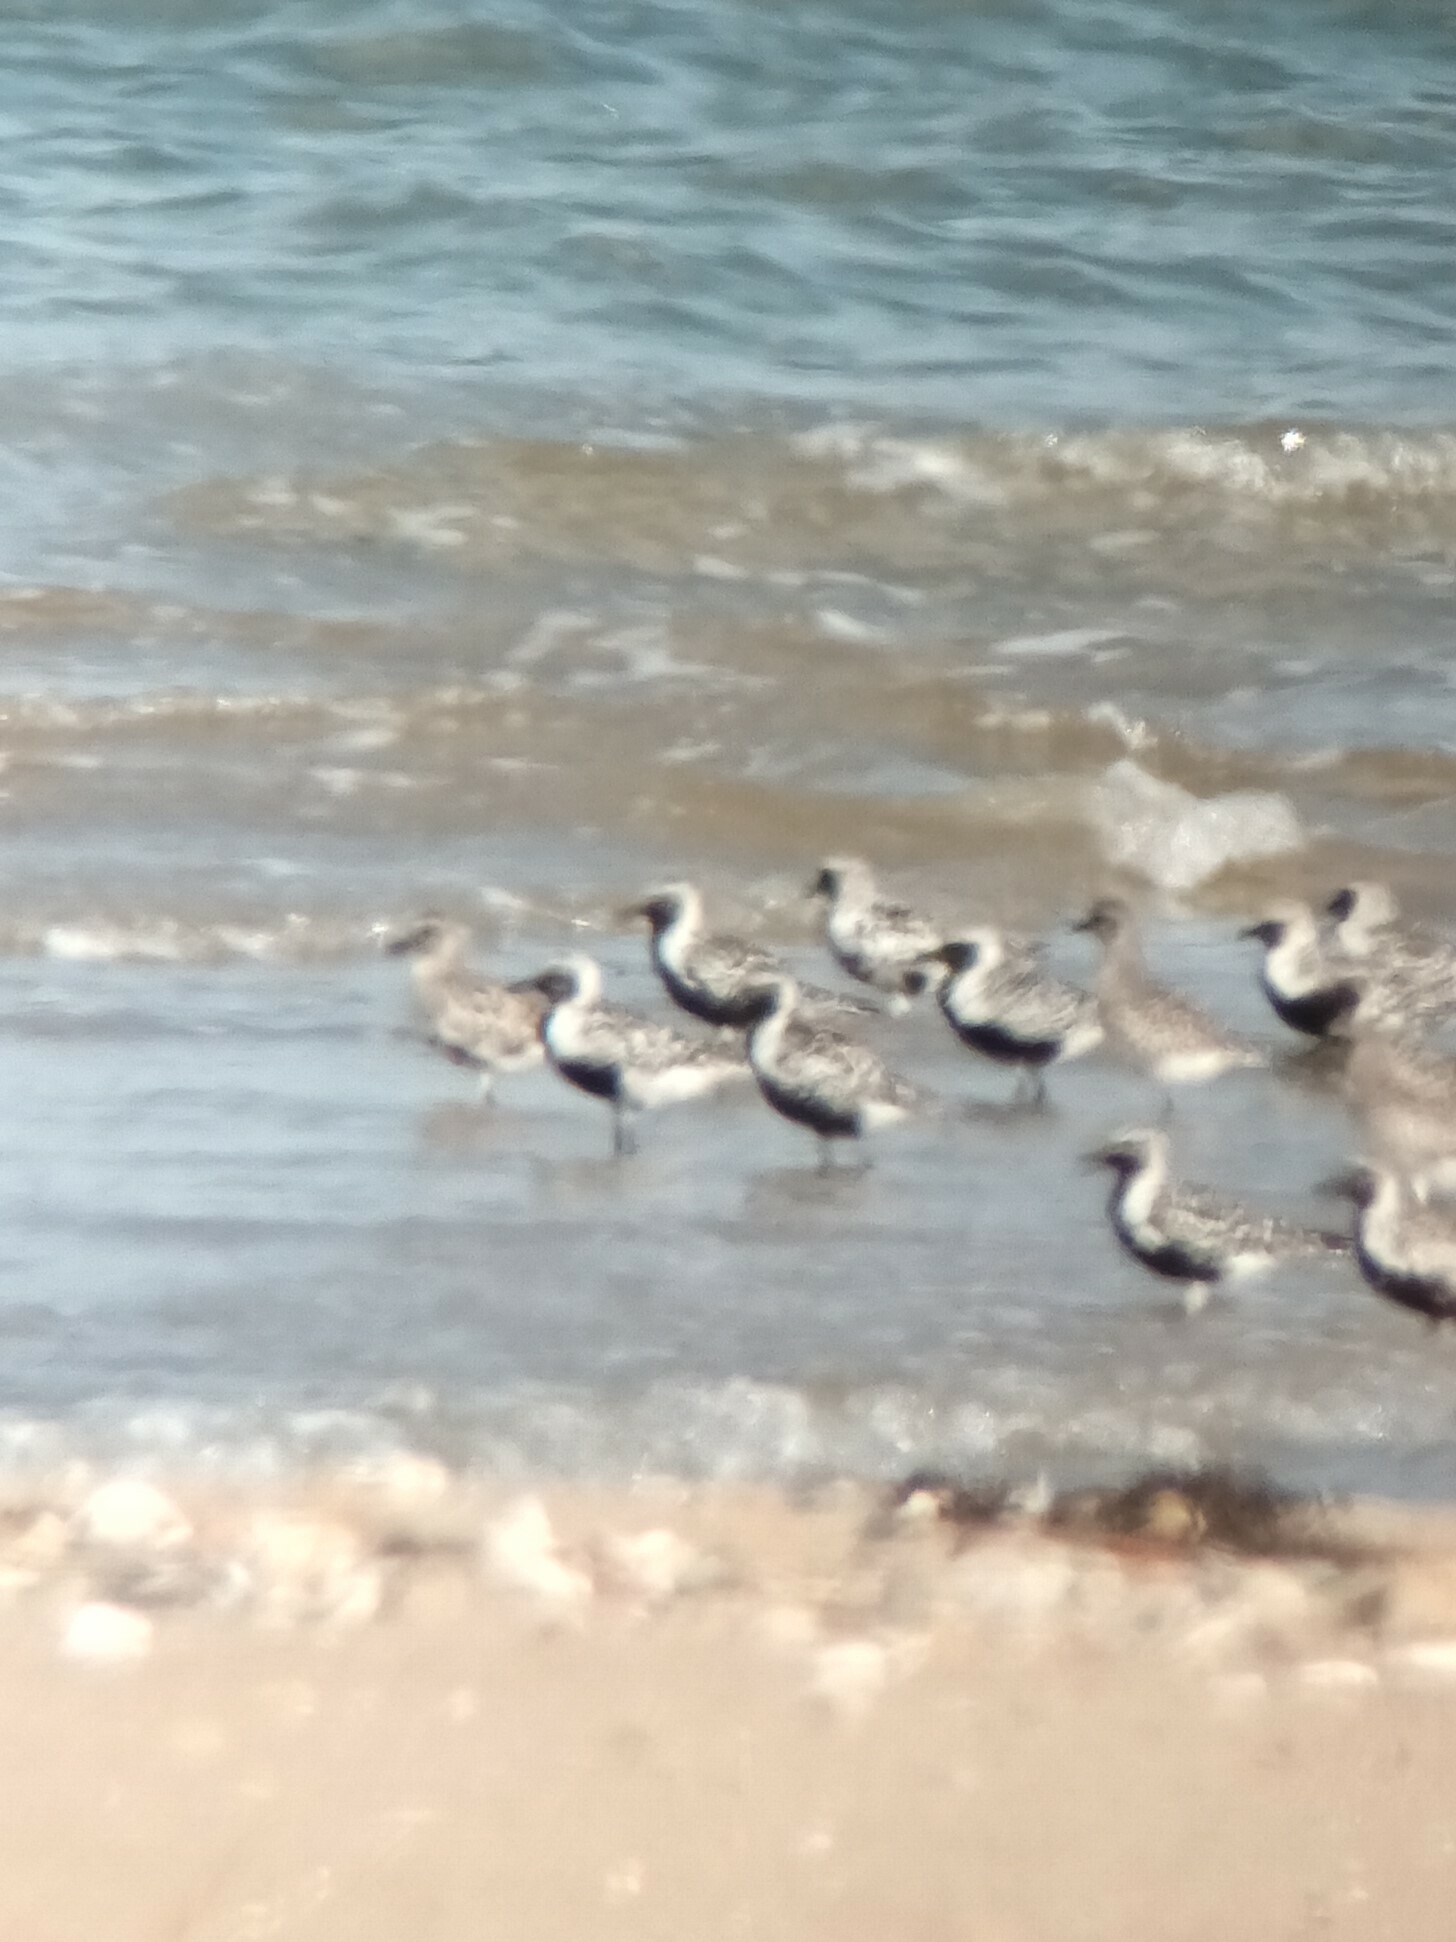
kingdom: Animalia
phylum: Chordata
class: Aves
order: Charadriiformes
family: Charadriidae
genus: Pluvialis
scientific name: Pluvialis squatarola
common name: Grey plover
